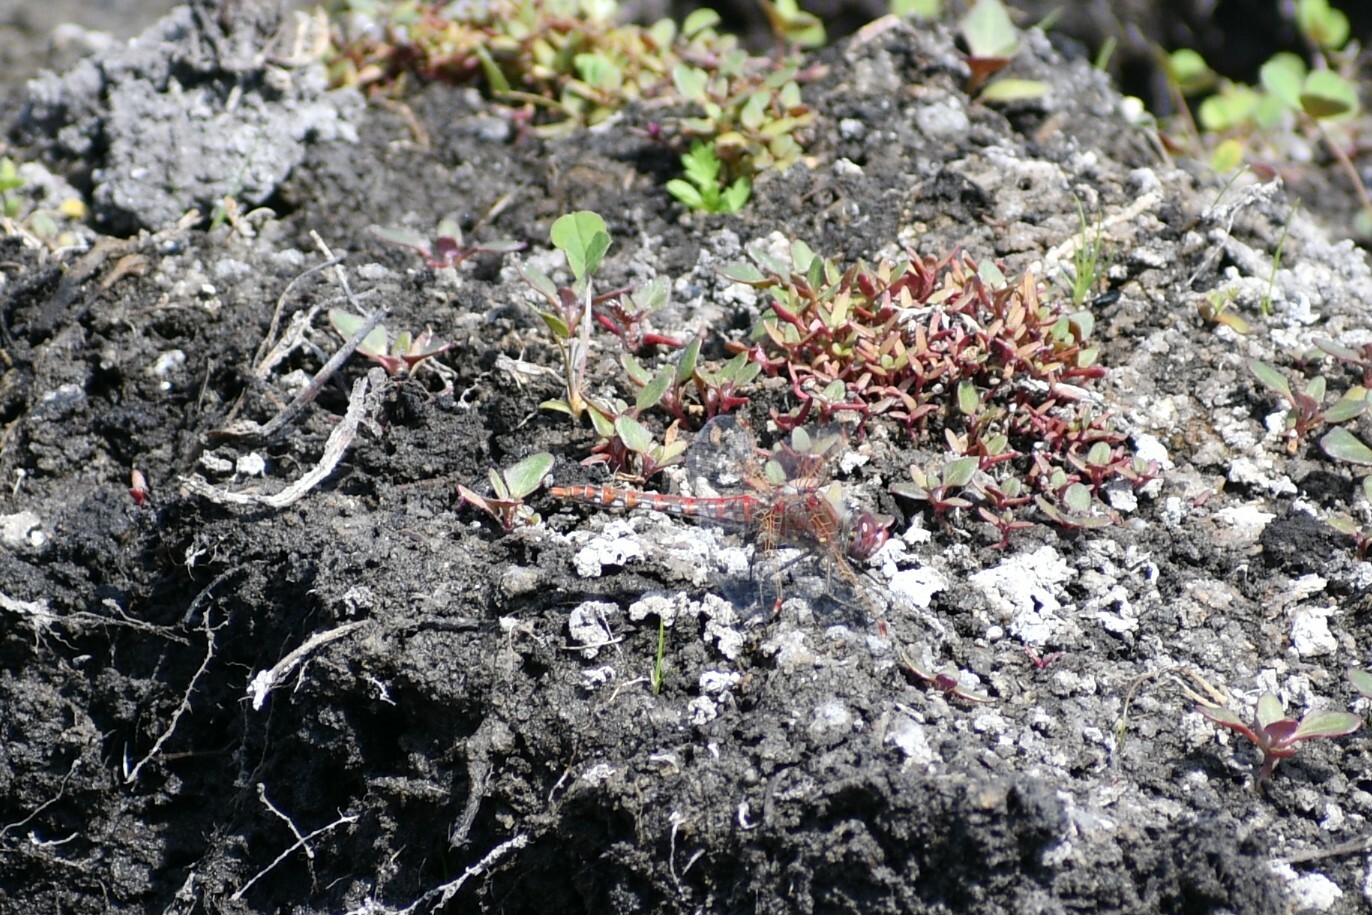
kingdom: Animalia
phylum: Arthropoda
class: Insecta
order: Odonata
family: Libellulidae
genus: Sympetrum
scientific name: Sympetrum corruptum
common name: Variegated meadowhawk
